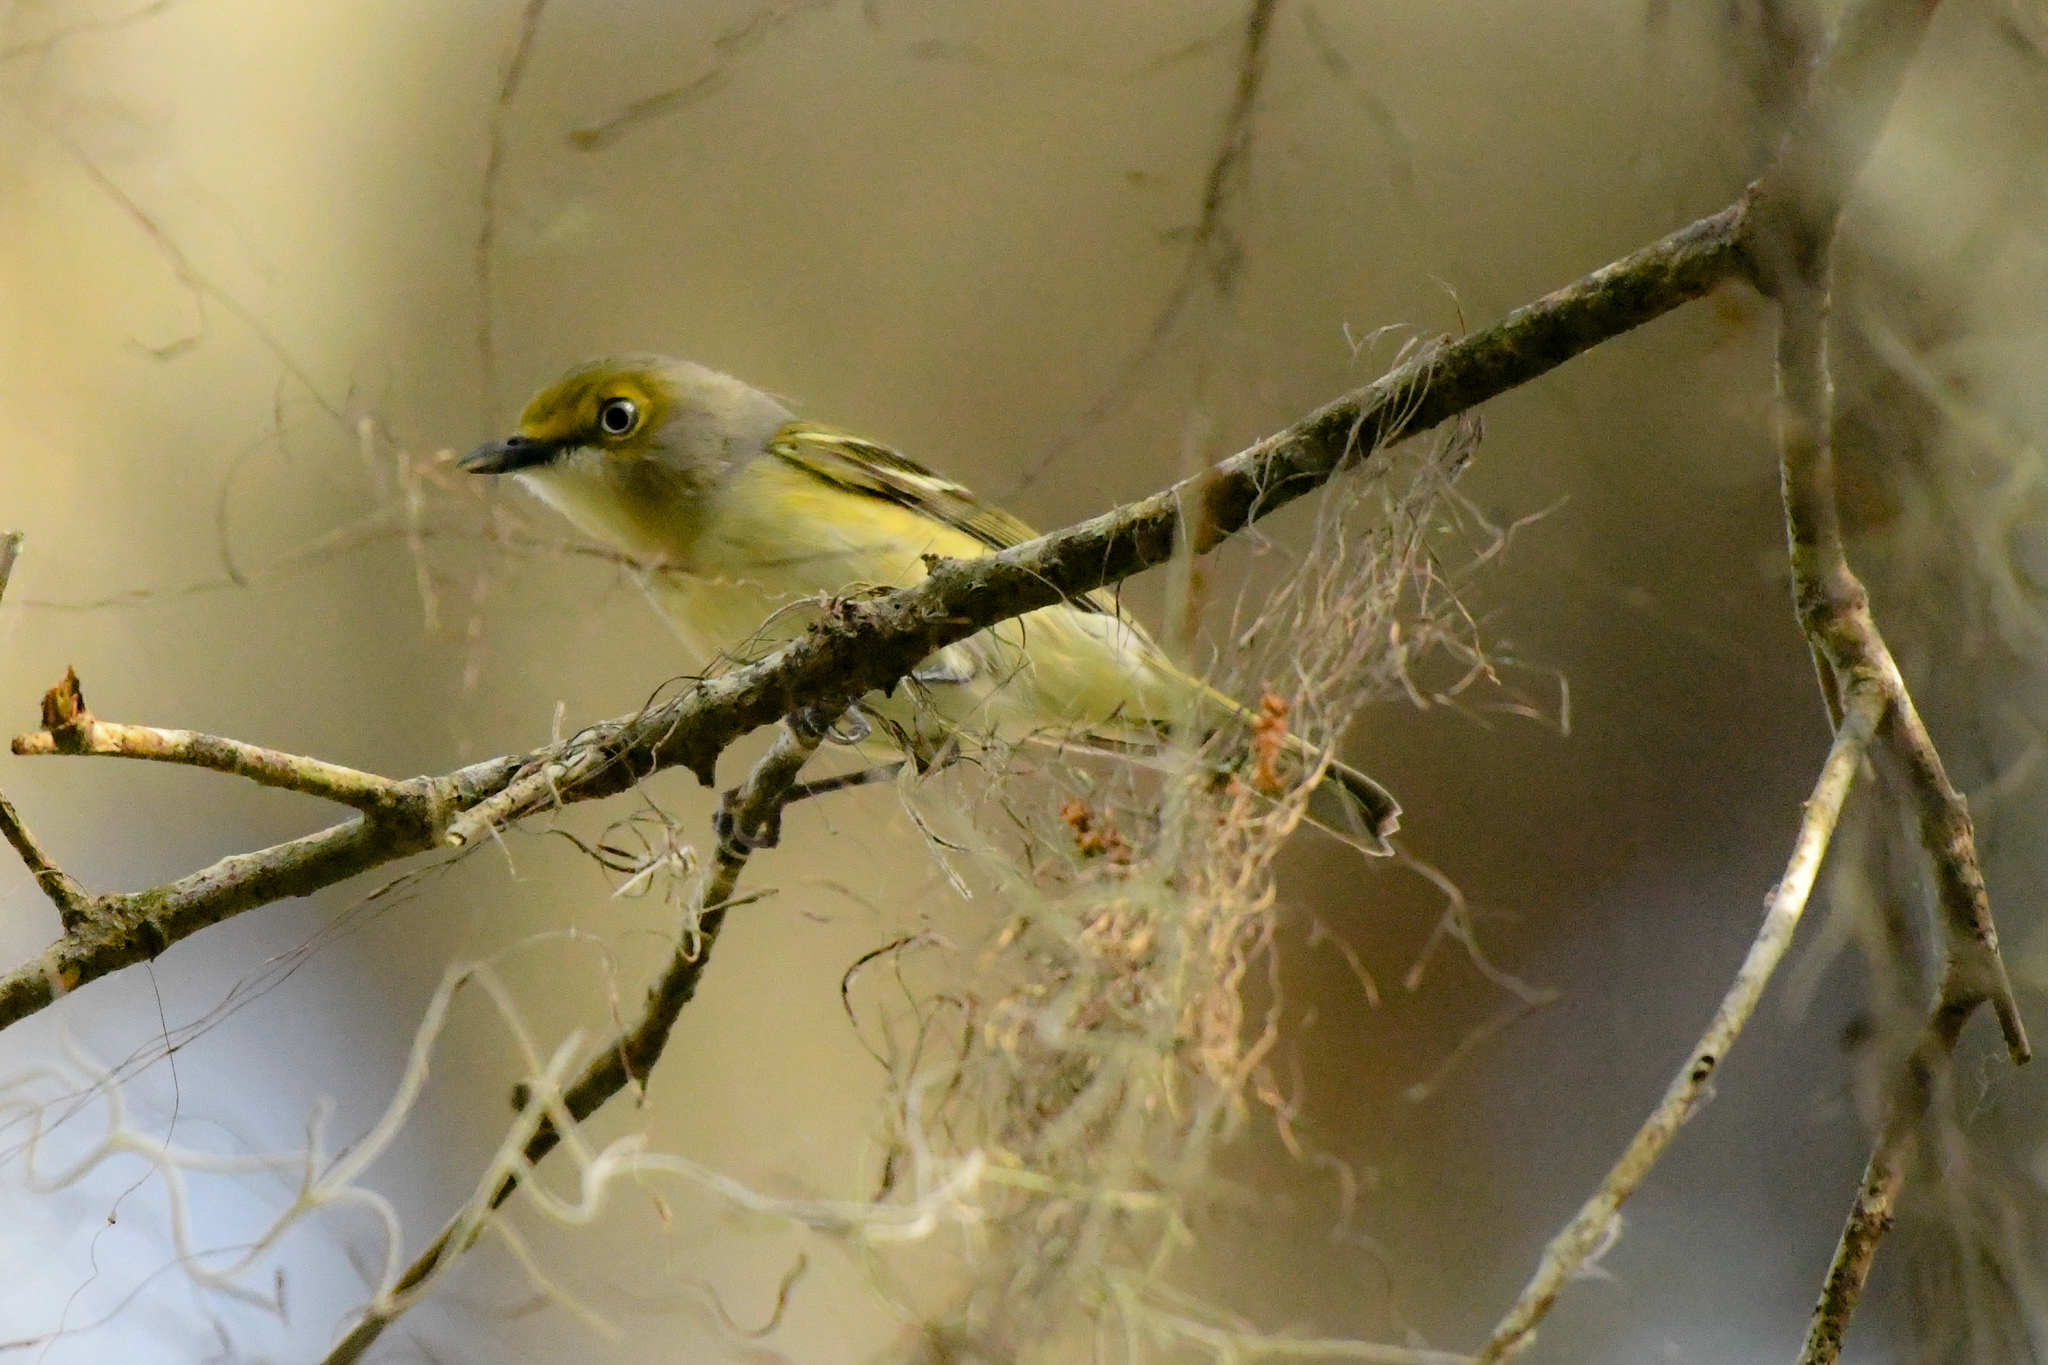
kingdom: Animalia
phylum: Chordata
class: Aves
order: Passeriformes
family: Vireonidae
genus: Vireo
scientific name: Vireo griseus
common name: White-eyed vireo
